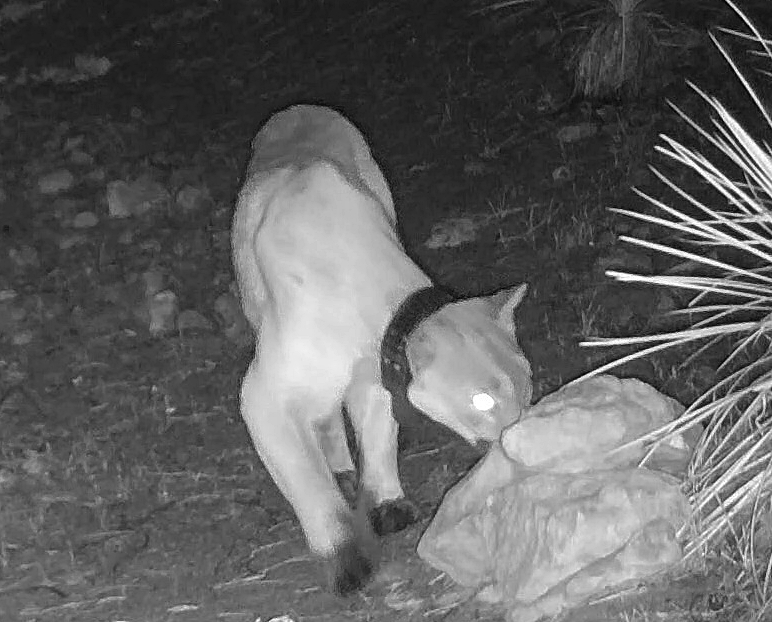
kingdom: Animalia
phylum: Chordata
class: Mammalia
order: Carnivora
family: Felidae
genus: Puma
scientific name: Puma concolor
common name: Puma
